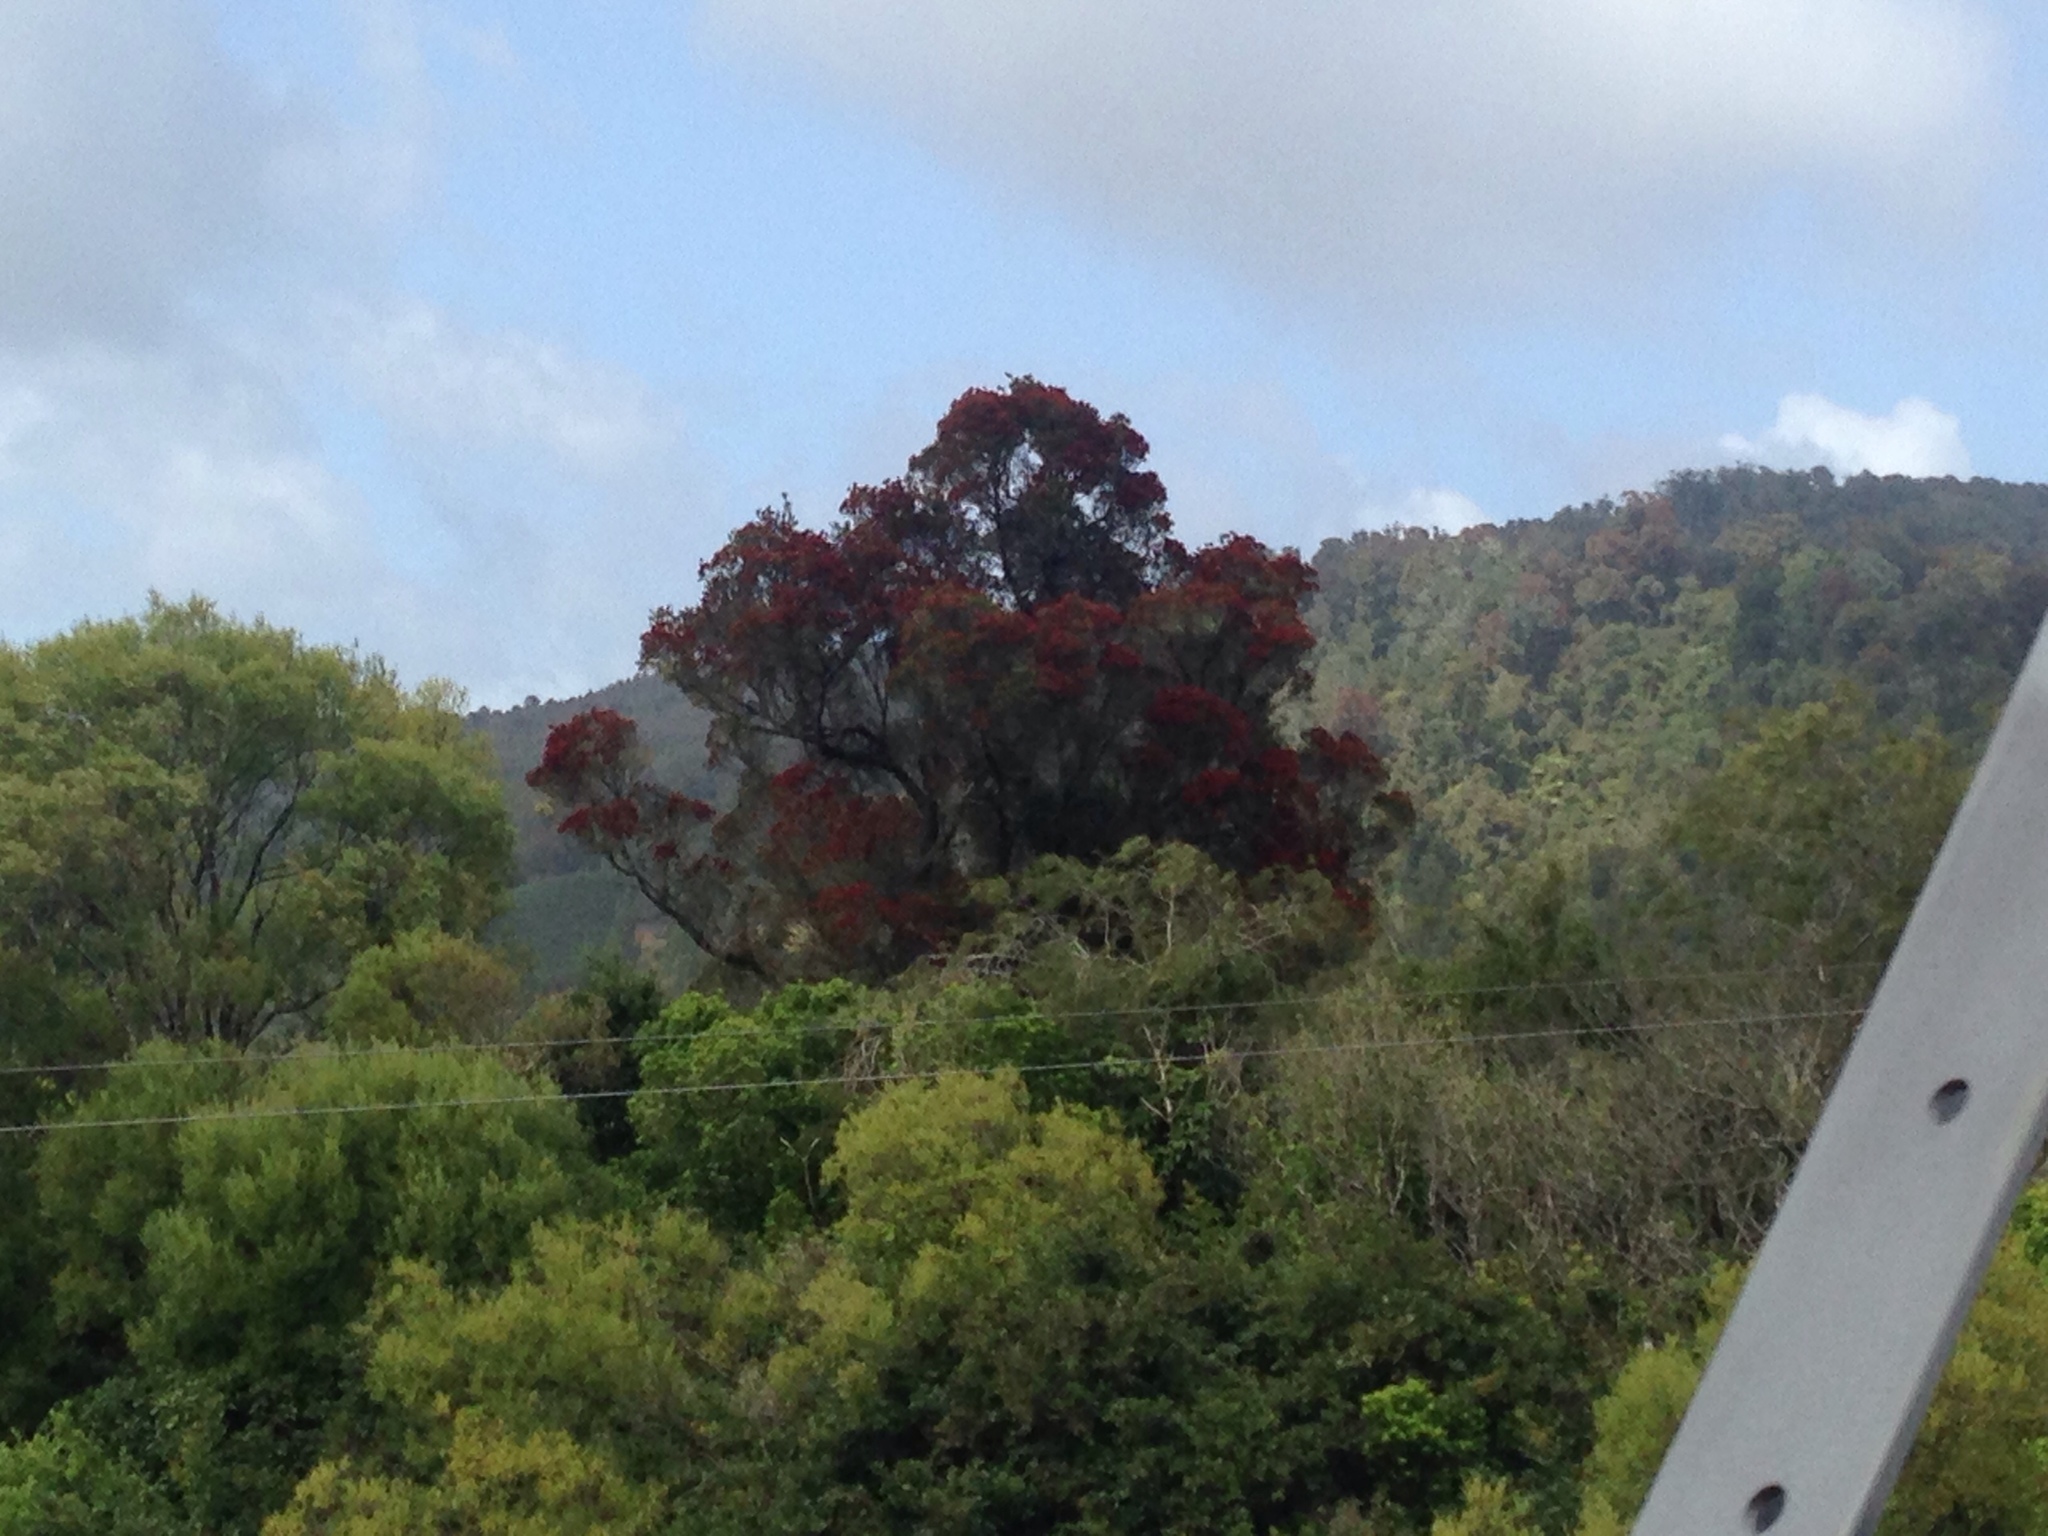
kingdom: Plantae
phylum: Tracheophyta
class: Magnoliopsida
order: Myrtales
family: Myrtaceae
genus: Metrosideros
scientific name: Metrosideros robusta
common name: Northern rata
